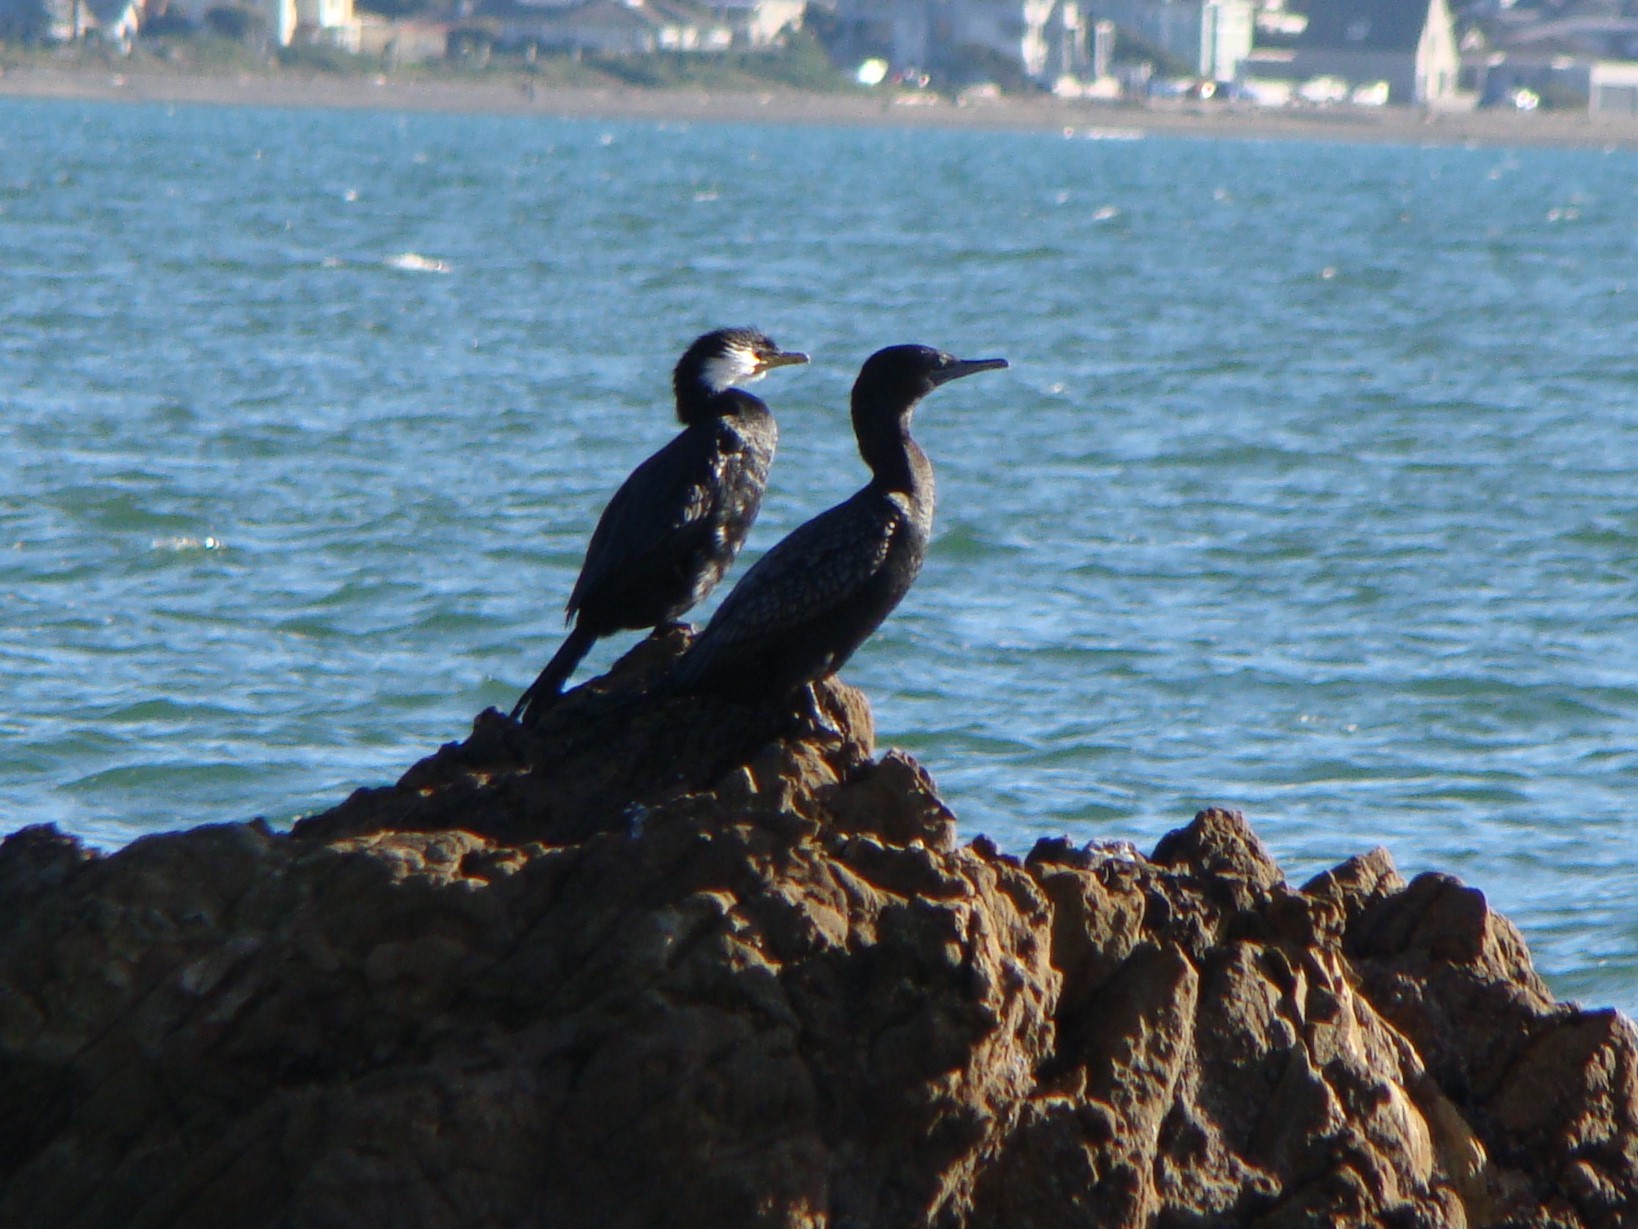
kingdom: Animalia
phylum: Chordata
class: Aves
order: Suliformes
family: Phalacrocoracidae
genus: Phalacrocorax
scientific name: Phalacrocorax sulcirostris
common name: Little black cormorant
